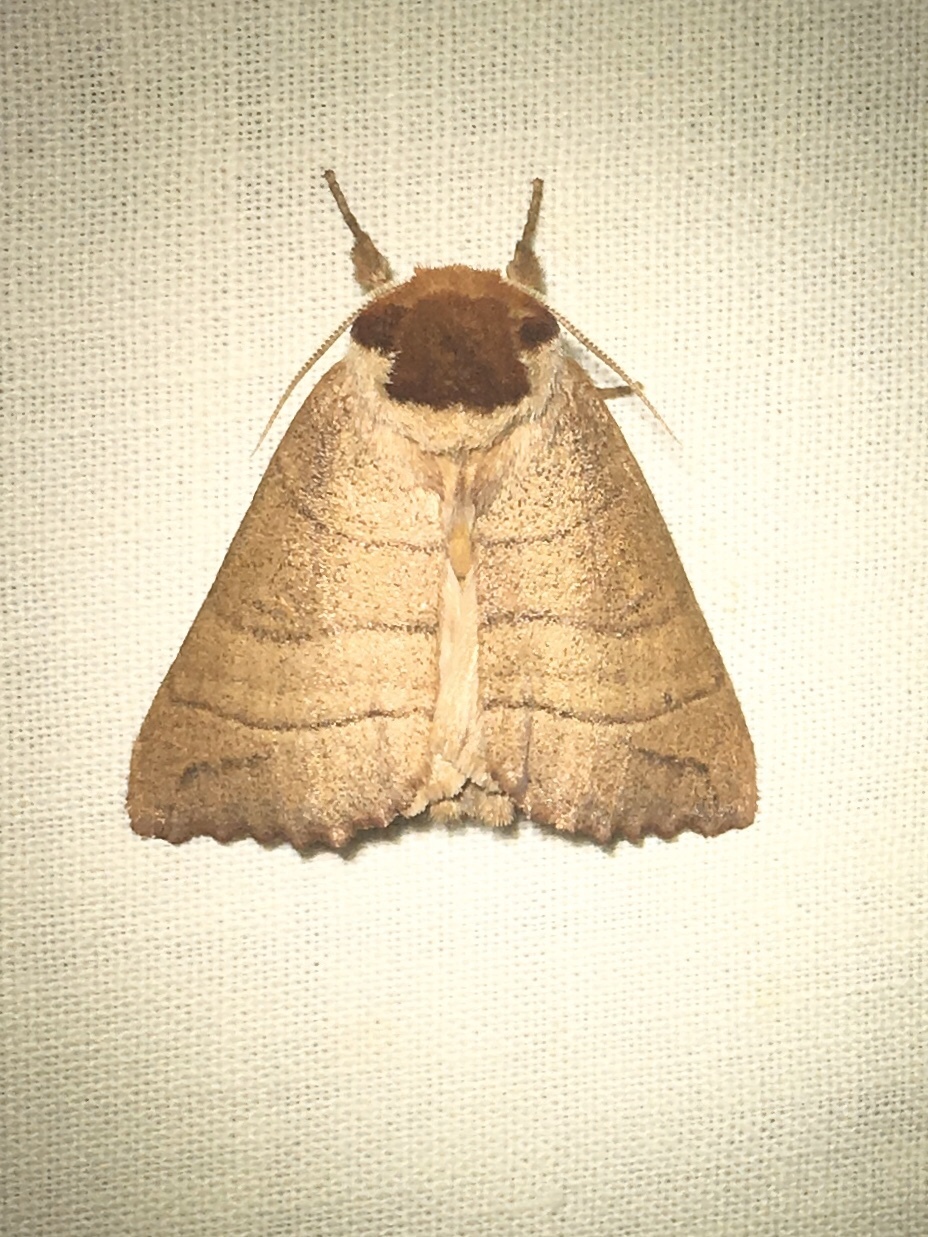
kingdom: Animalia
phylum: Arthropoda
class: Insecta
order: Lepidoptera
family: Notodontidae
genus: Datana
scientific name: Datana ministra
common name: Yellow-necked caterpillar moth
